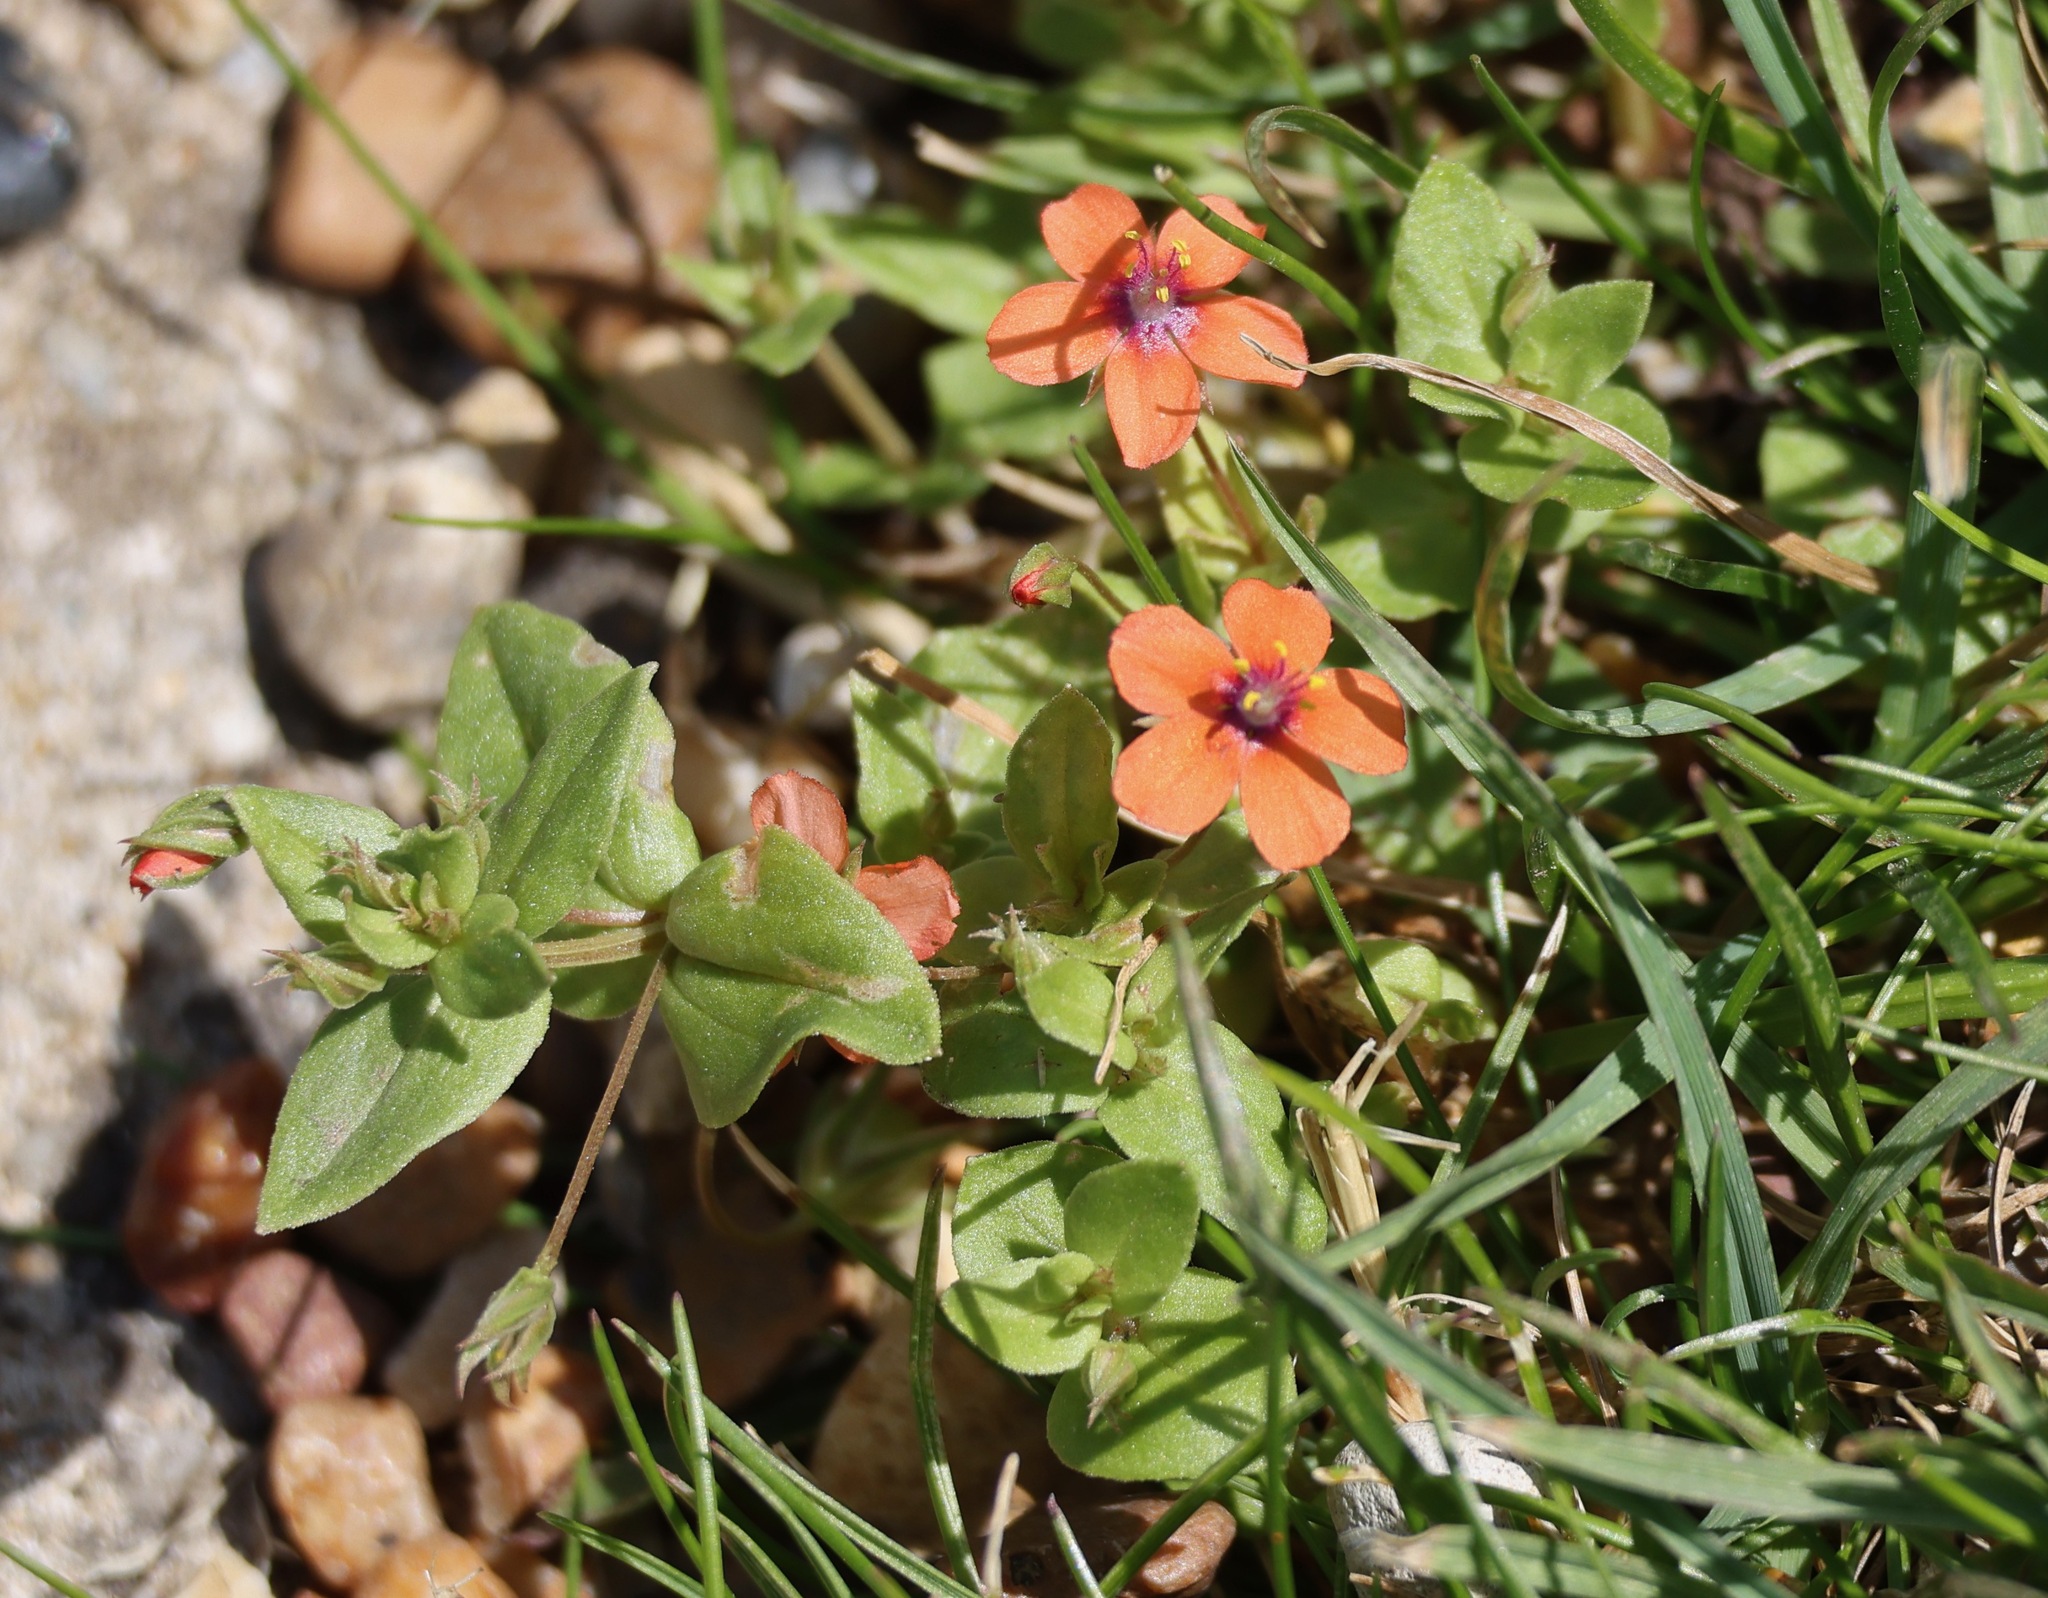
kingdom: Plantae
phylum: Tracheophyta
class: Magnoliopsida
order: Ericales
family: Primulaceae
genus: Lysimachia
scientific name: Lysimachia arvensis
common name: Scarlet pimpernel
